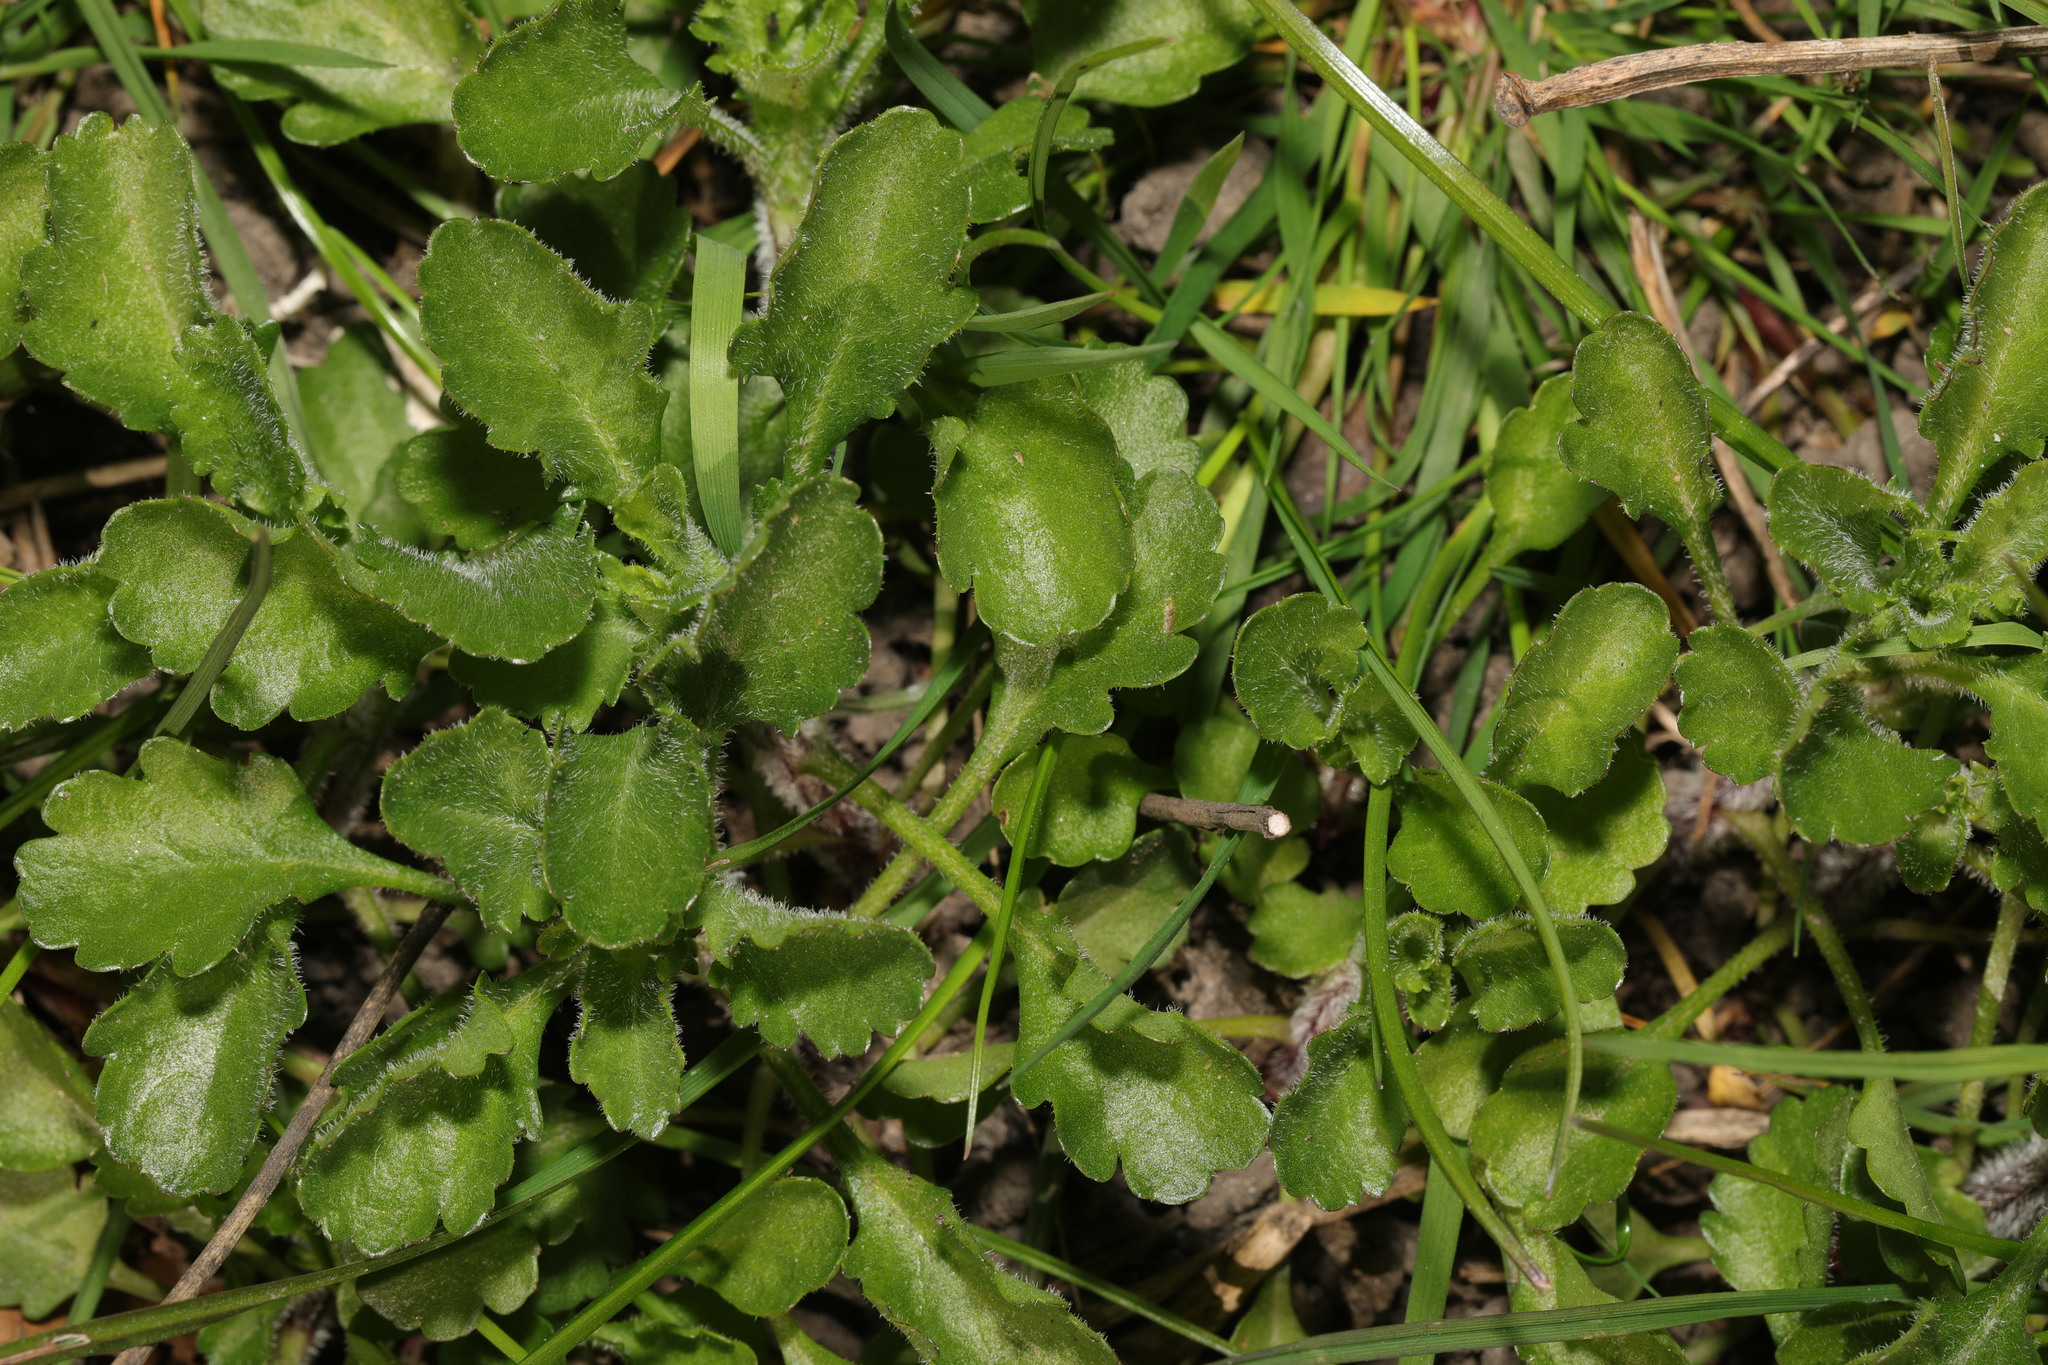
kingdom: Plantae
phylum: Tracheophyta
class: Magnoliopsida
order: Asterales
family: Asteraceae
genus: Leucanthemum
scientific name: Leucanthemum vulgare
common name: Oxeye daisy
